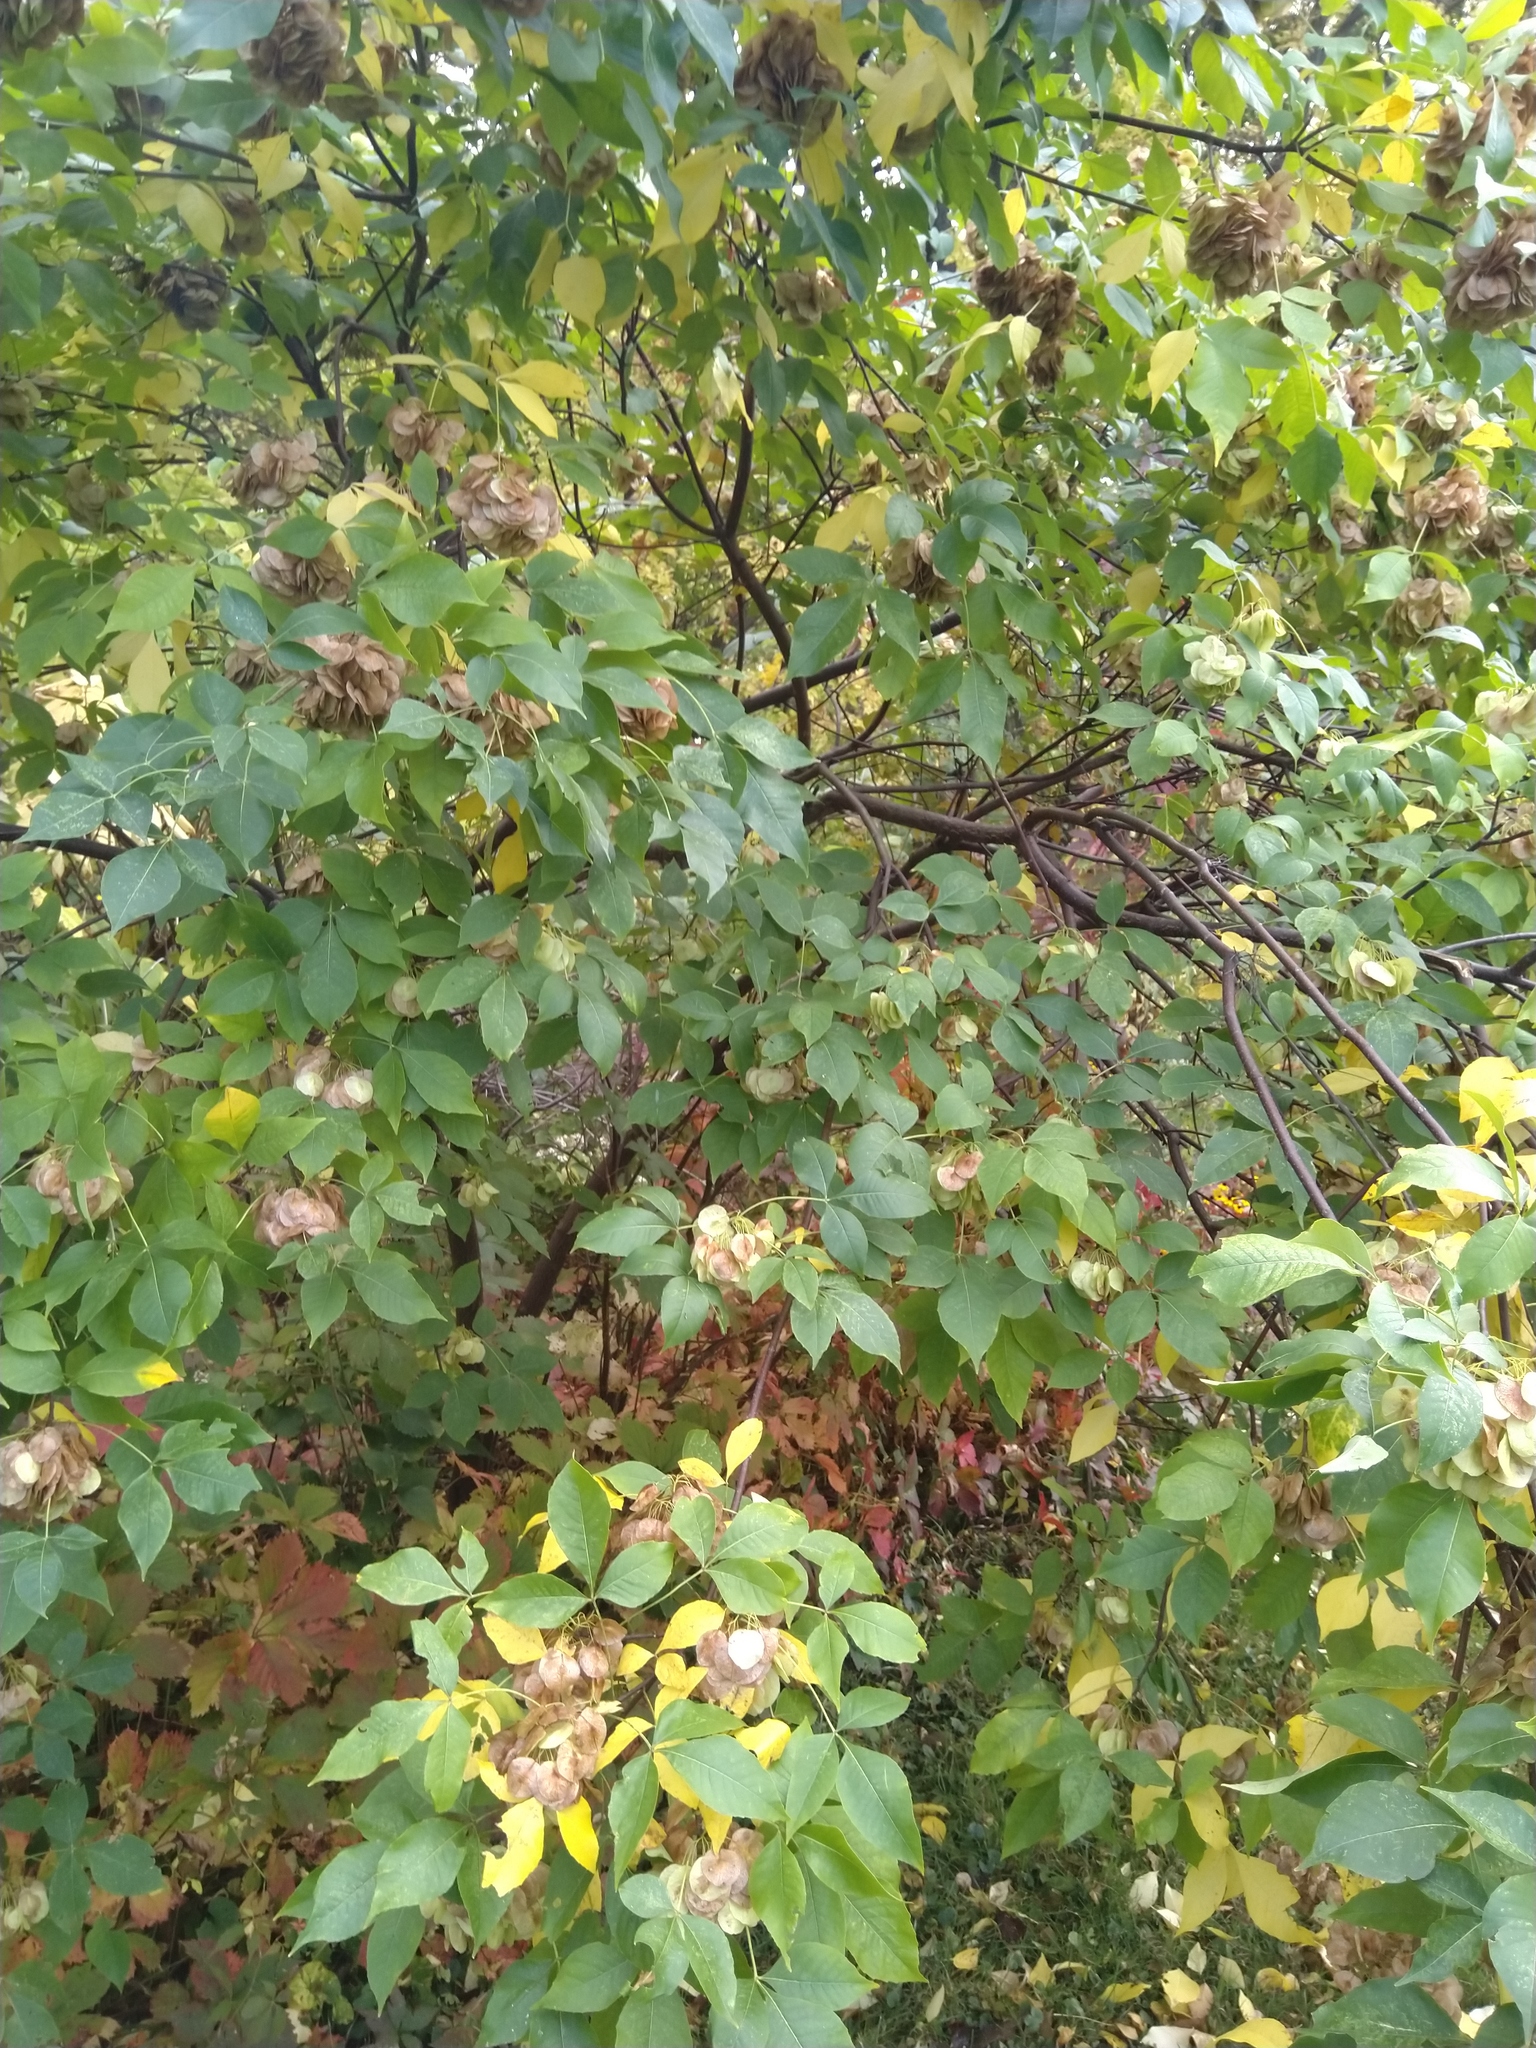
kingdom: Plantae
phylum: Tracheophyta
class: Magnoliopsida
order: Sapindales
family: Rutaceae
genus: Ptelea
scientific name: Ptelea trifoliata
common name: Common hop-tree
